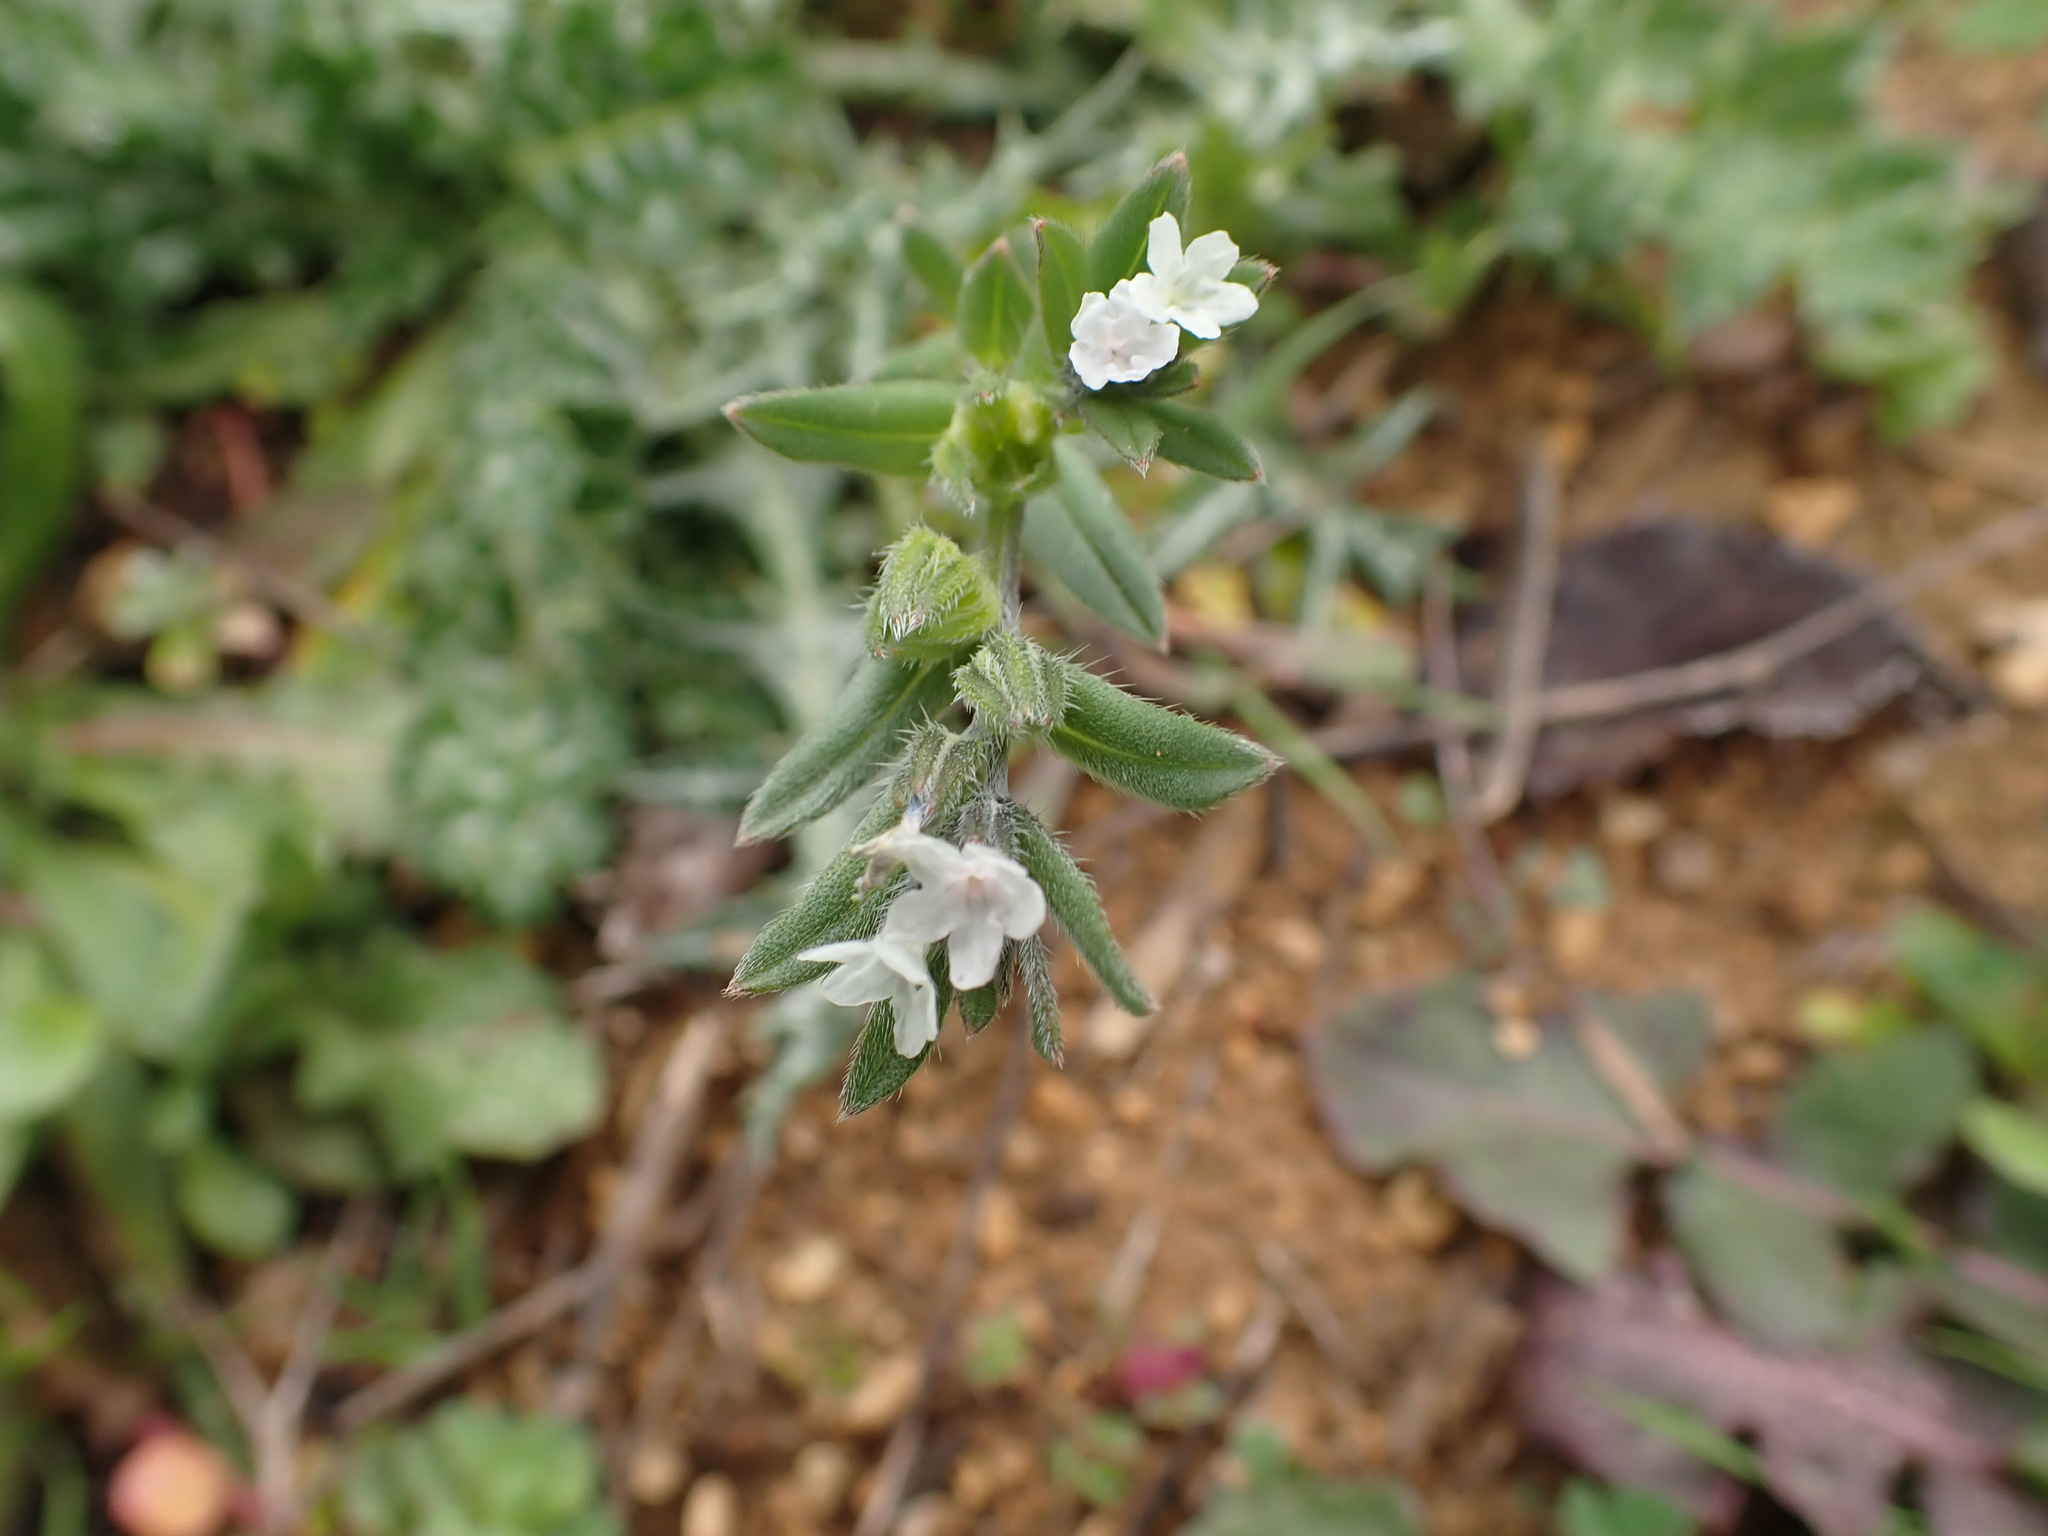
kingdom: Plantae
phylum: Tracheophyta
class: Magnoliopsida
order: Boraginales
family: Boraginaceae
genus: Buglossoides
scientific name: Buglossoides arvensis
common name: Corn gromwell
